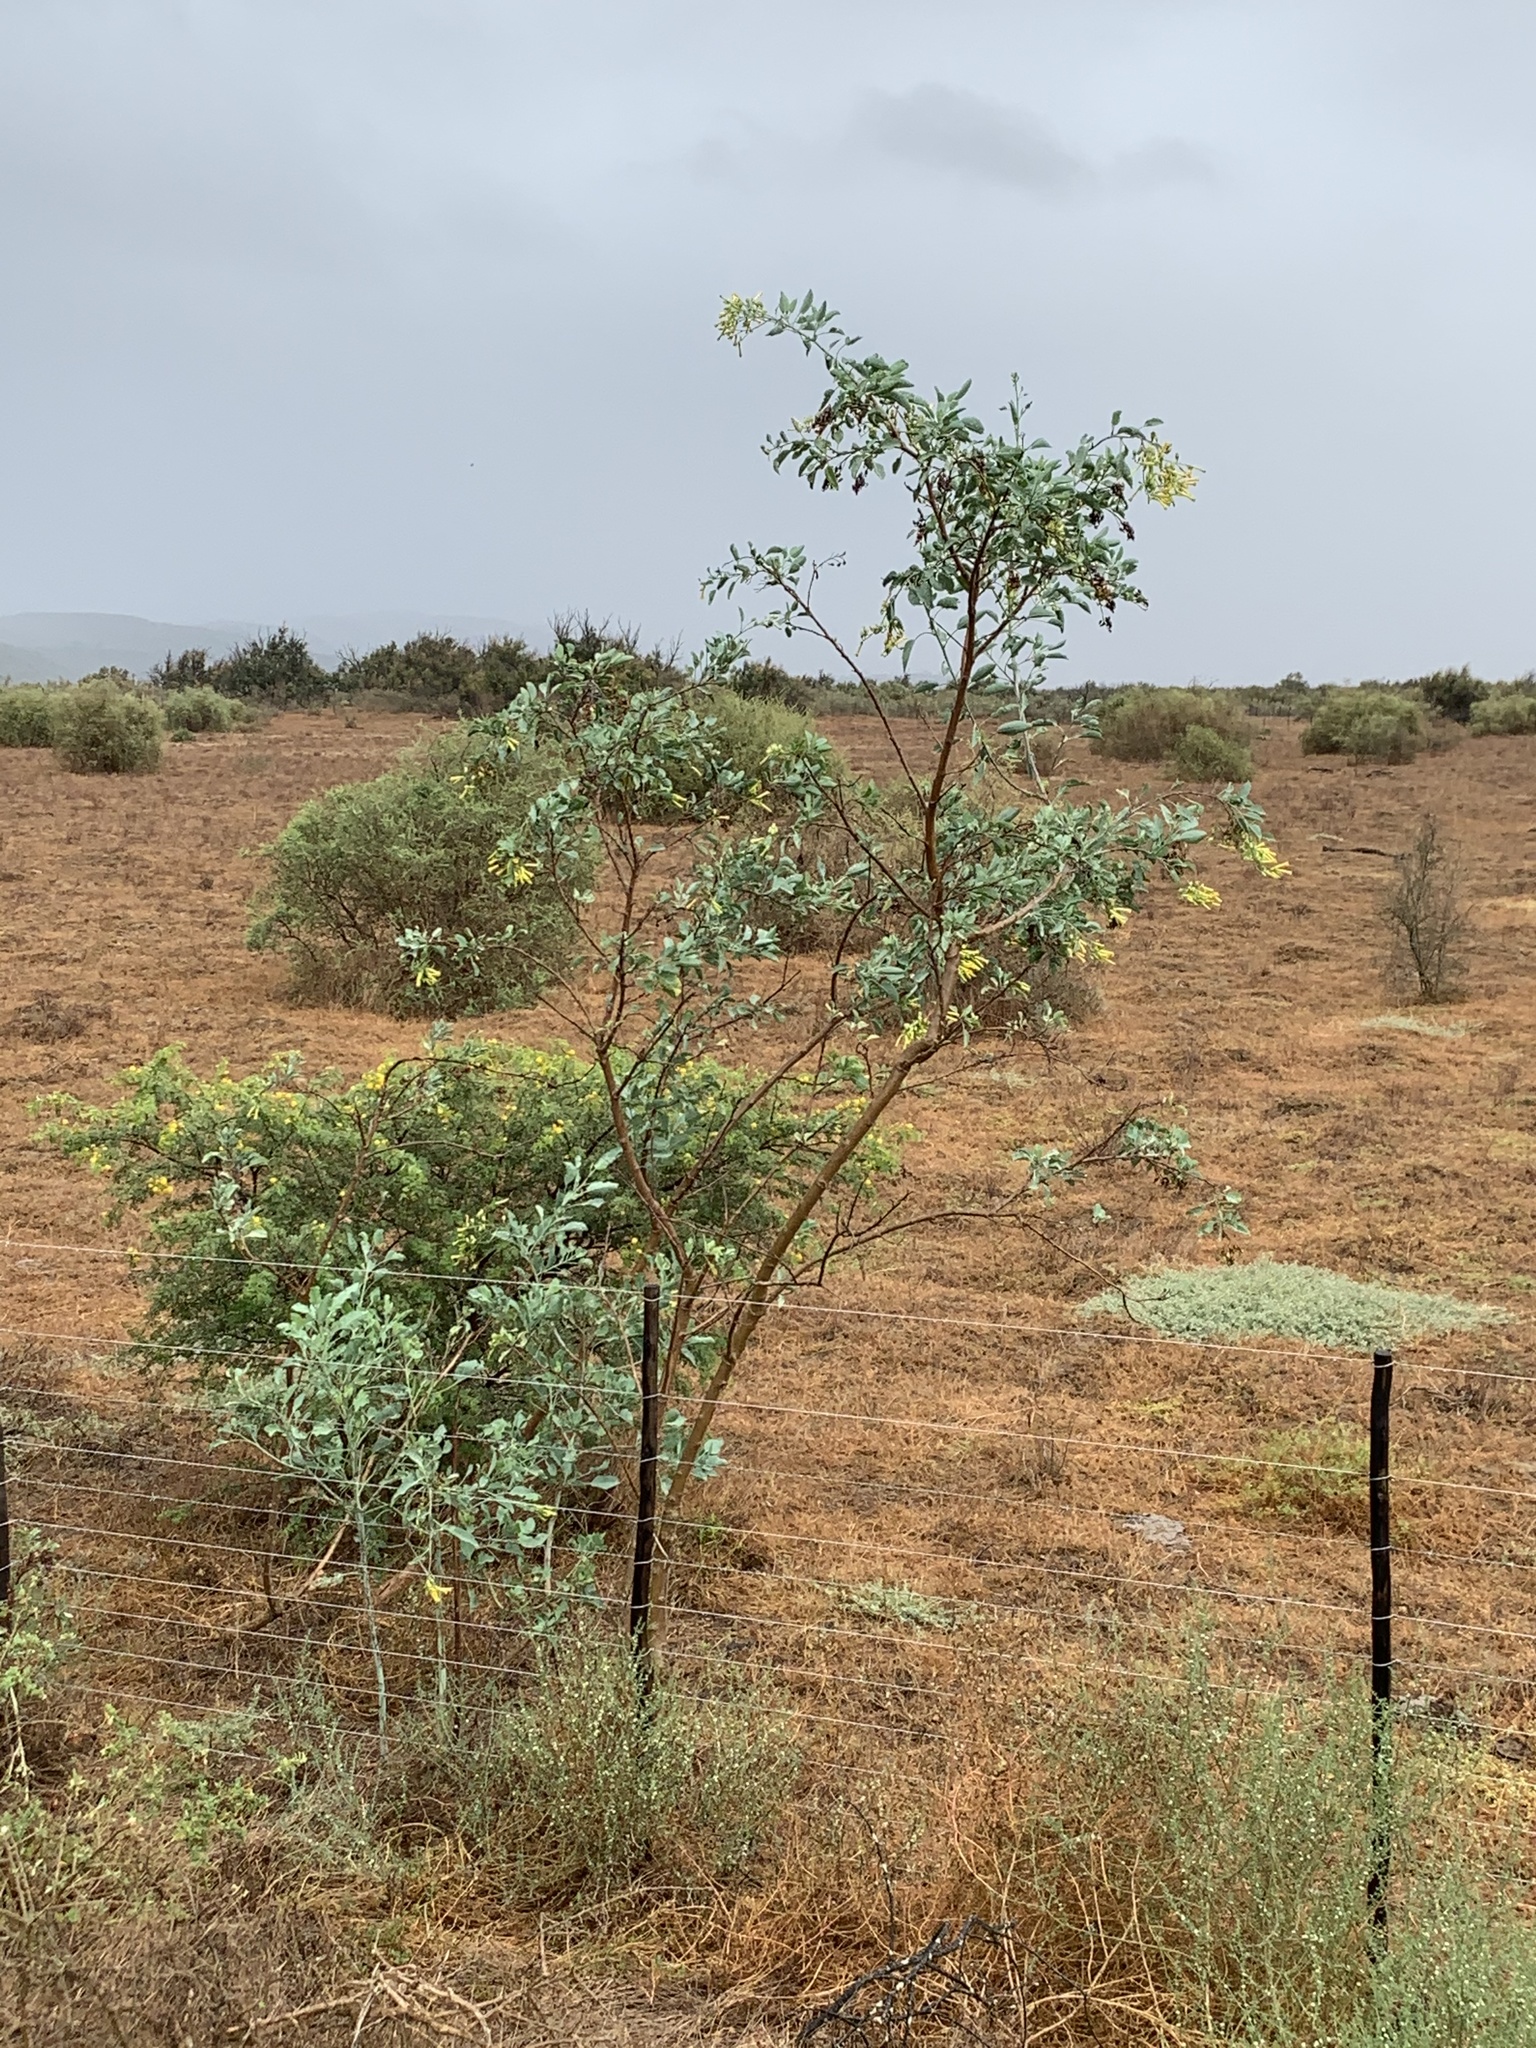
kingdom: Plantae
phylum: Tracheophyta
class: Magnoliopsida
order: Solanales
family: Solanaceae
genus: Nicotiana
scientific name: Nicotiana glauca
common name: Tree tobacco
